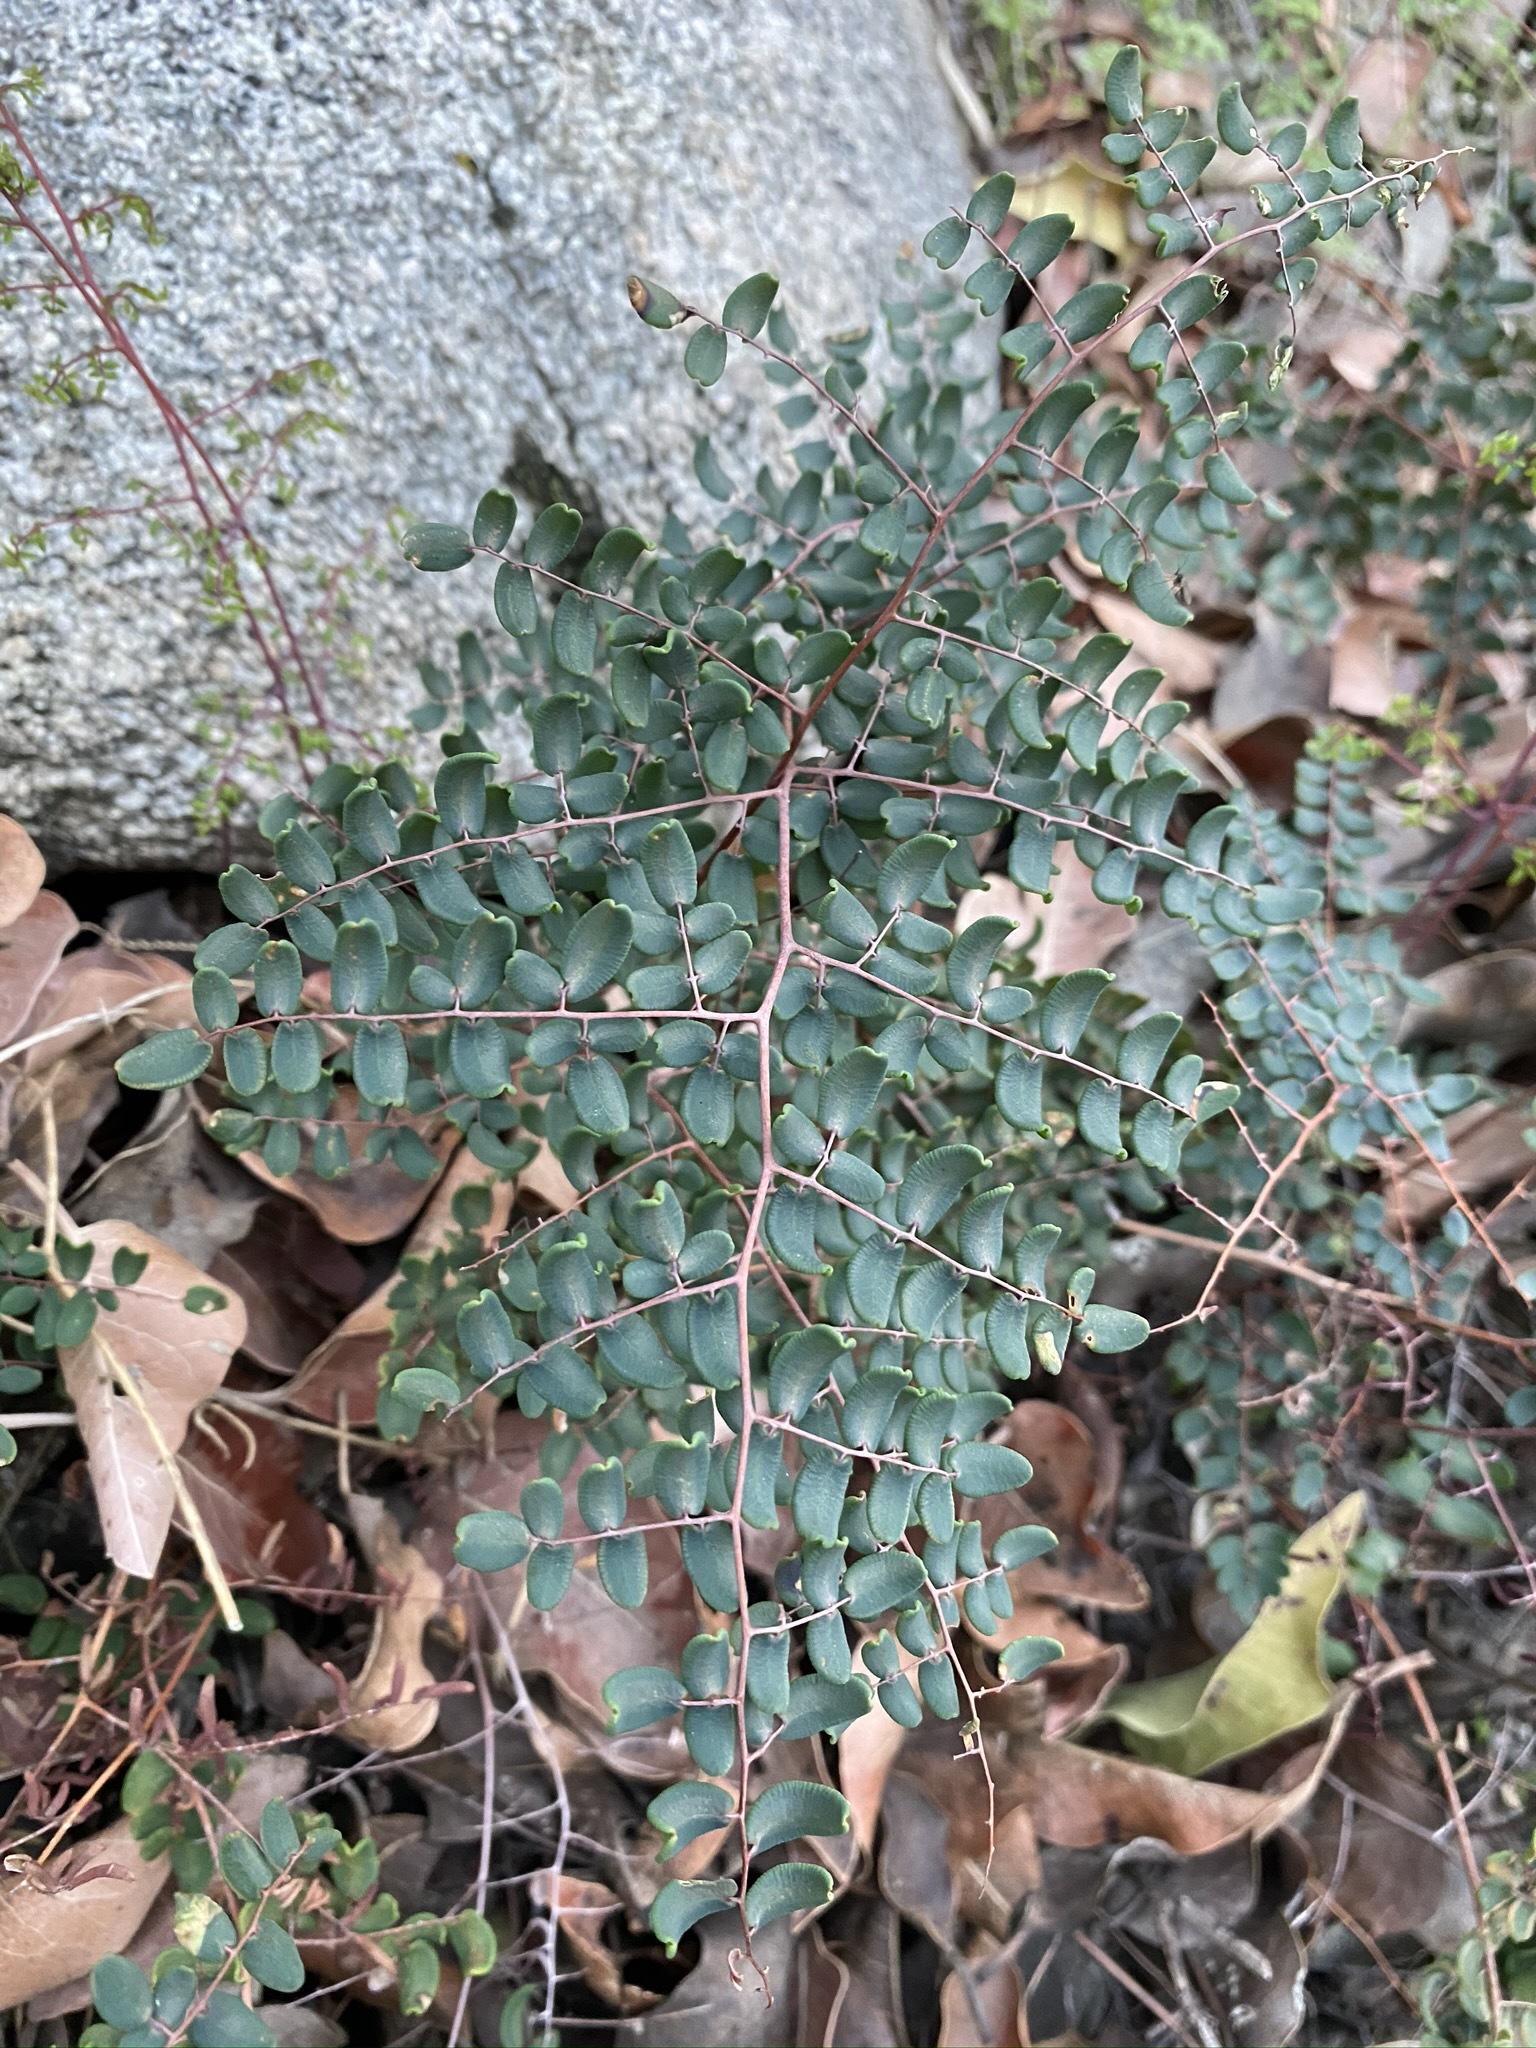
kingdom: Plantae
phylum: Tracheophyta
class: Polypodiopsida
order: Polypodiales
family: Pteridaceae
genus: Pellaea
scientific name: Pellaea andromedifolia
